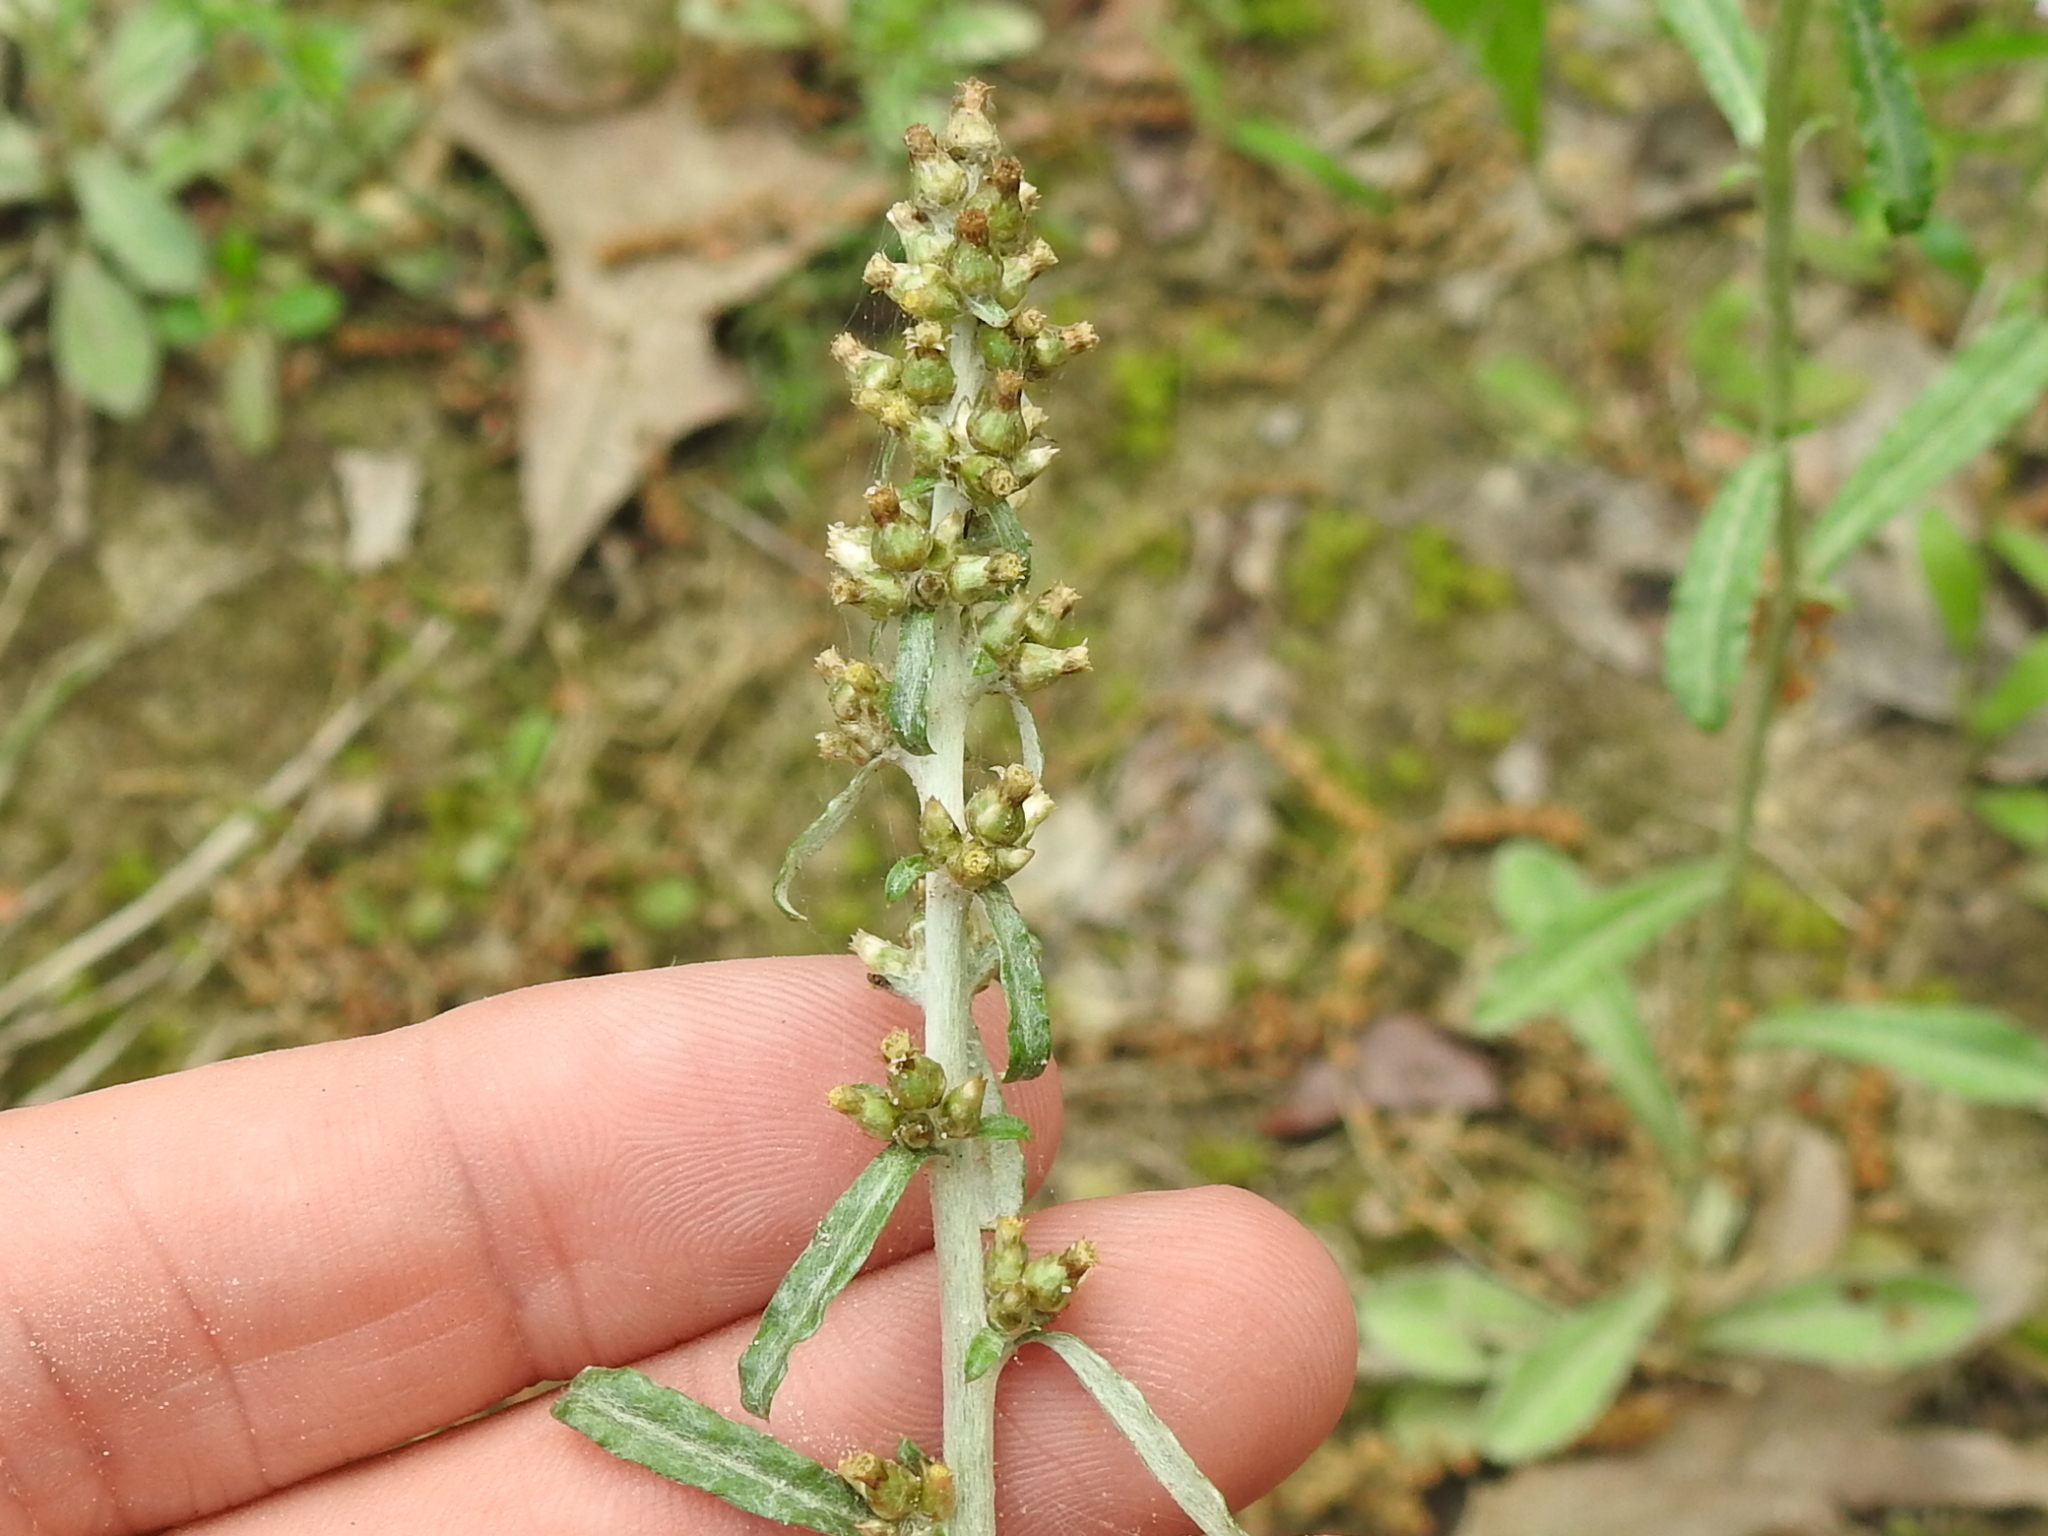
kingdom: Plantae
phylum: Tracheophyta
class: Magnoliopsida
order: Asterales
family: Asteraceae
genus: Gamochaeta
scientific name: Gamochaeta pensylvanica
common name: Pennsylvania everlasting
